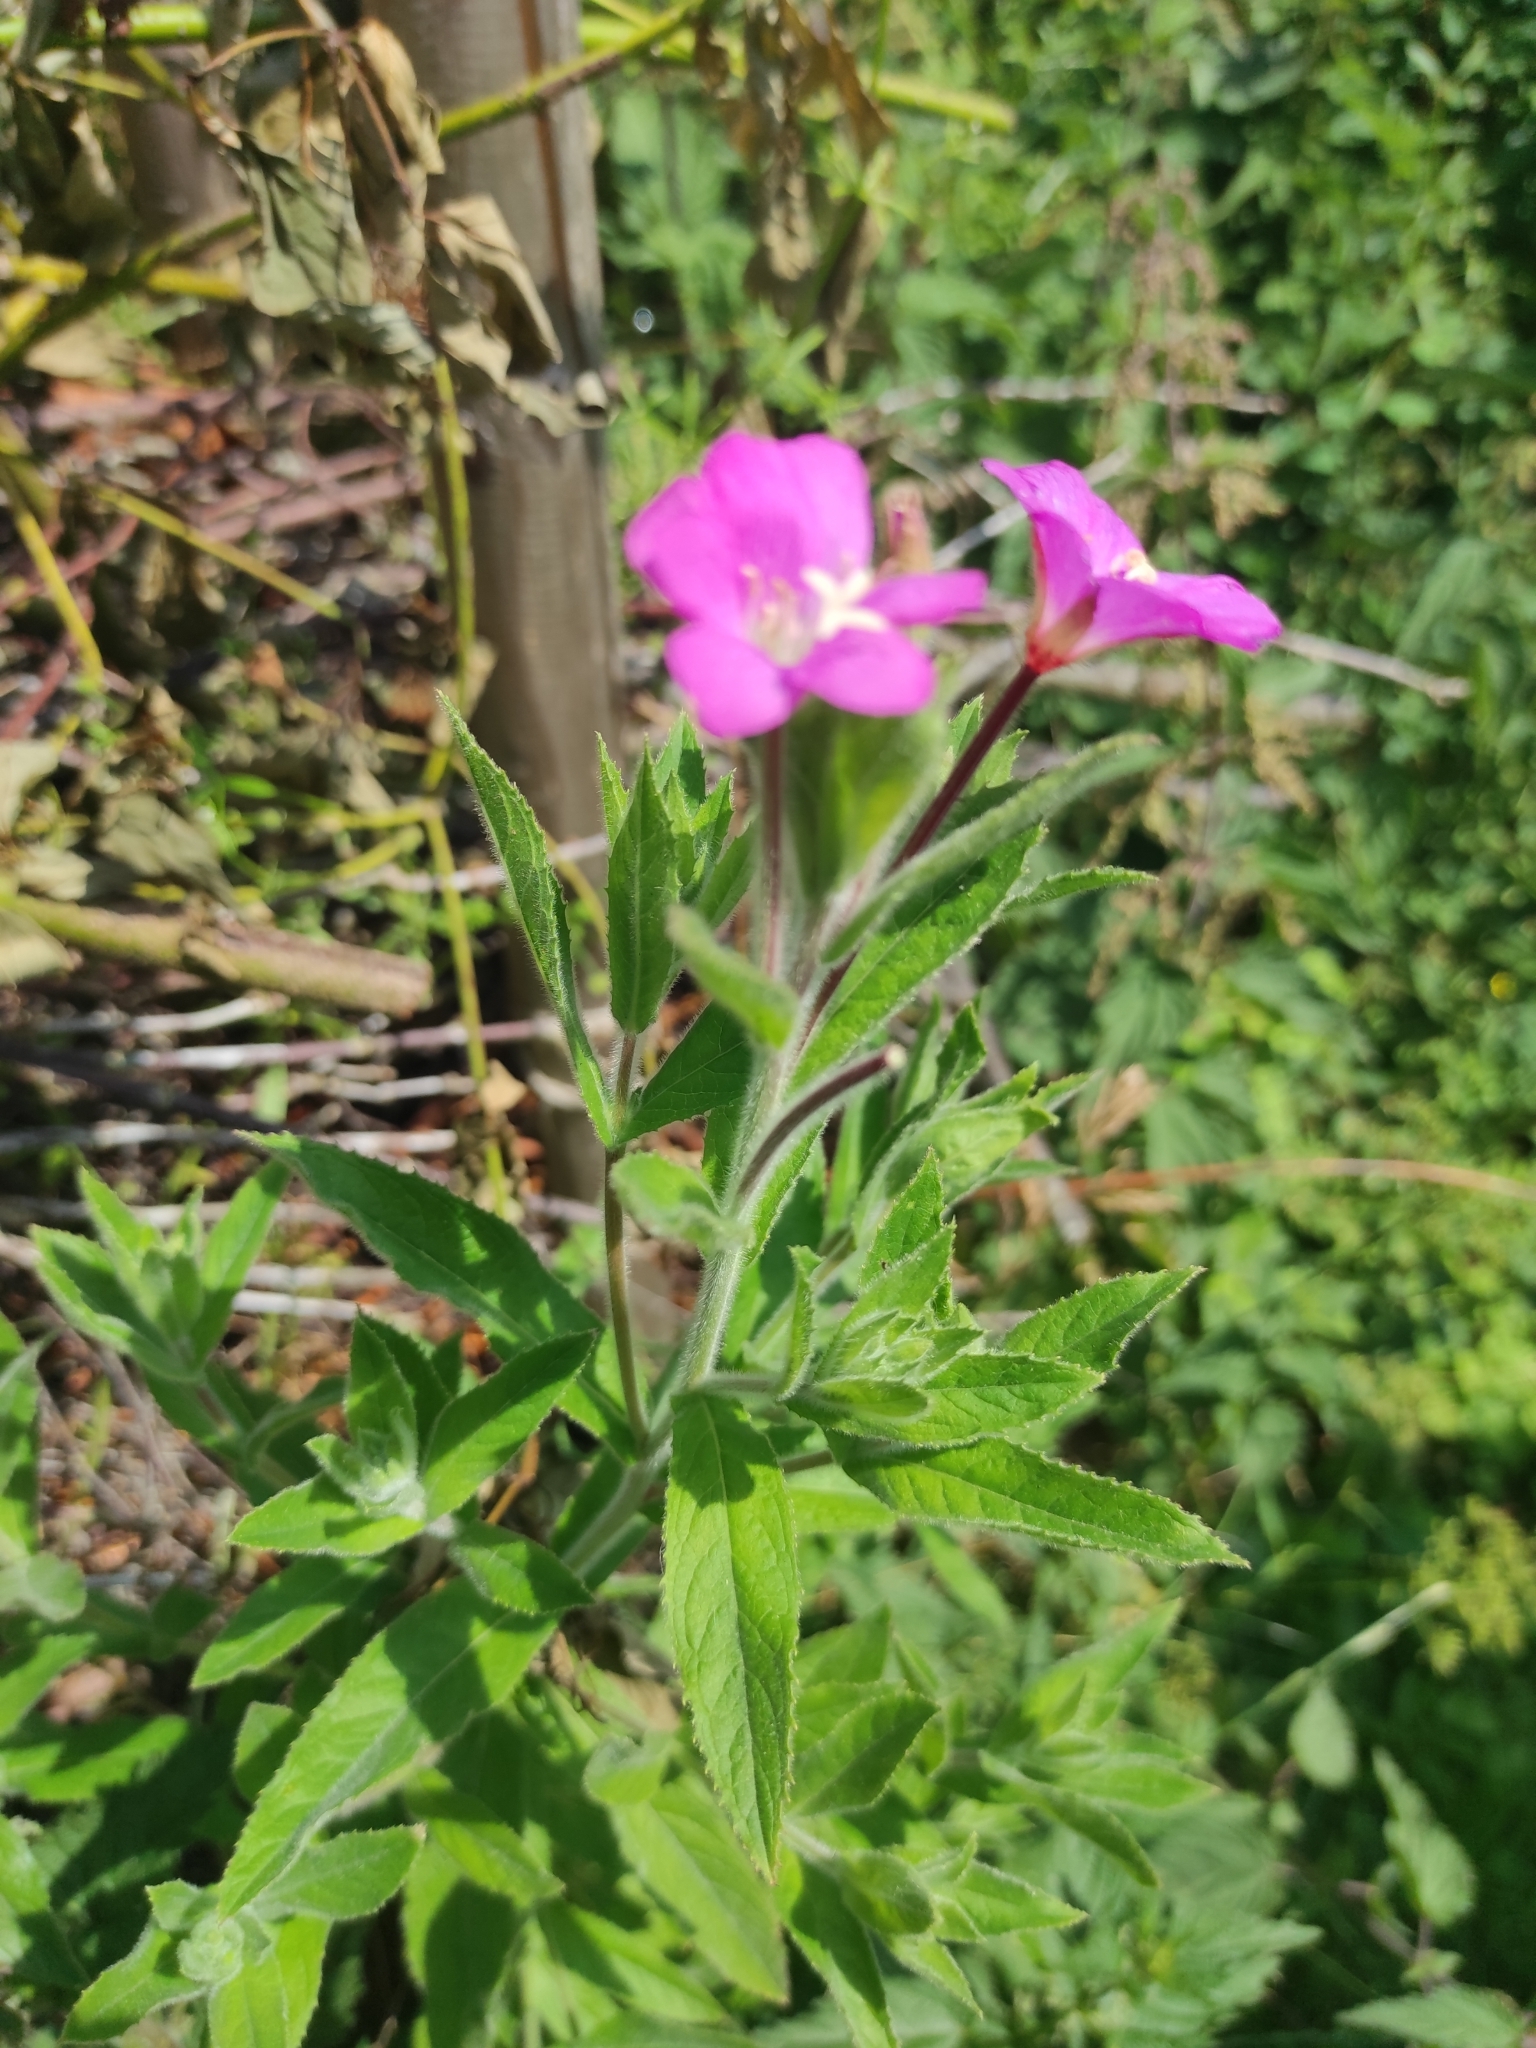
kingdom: Plantae
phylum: Tracheophyta
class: Magnoliopsida
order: Myrtales
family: Onagraceae
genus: Epilobium
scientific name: Epilobium hirsutum
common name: Great willowherb
